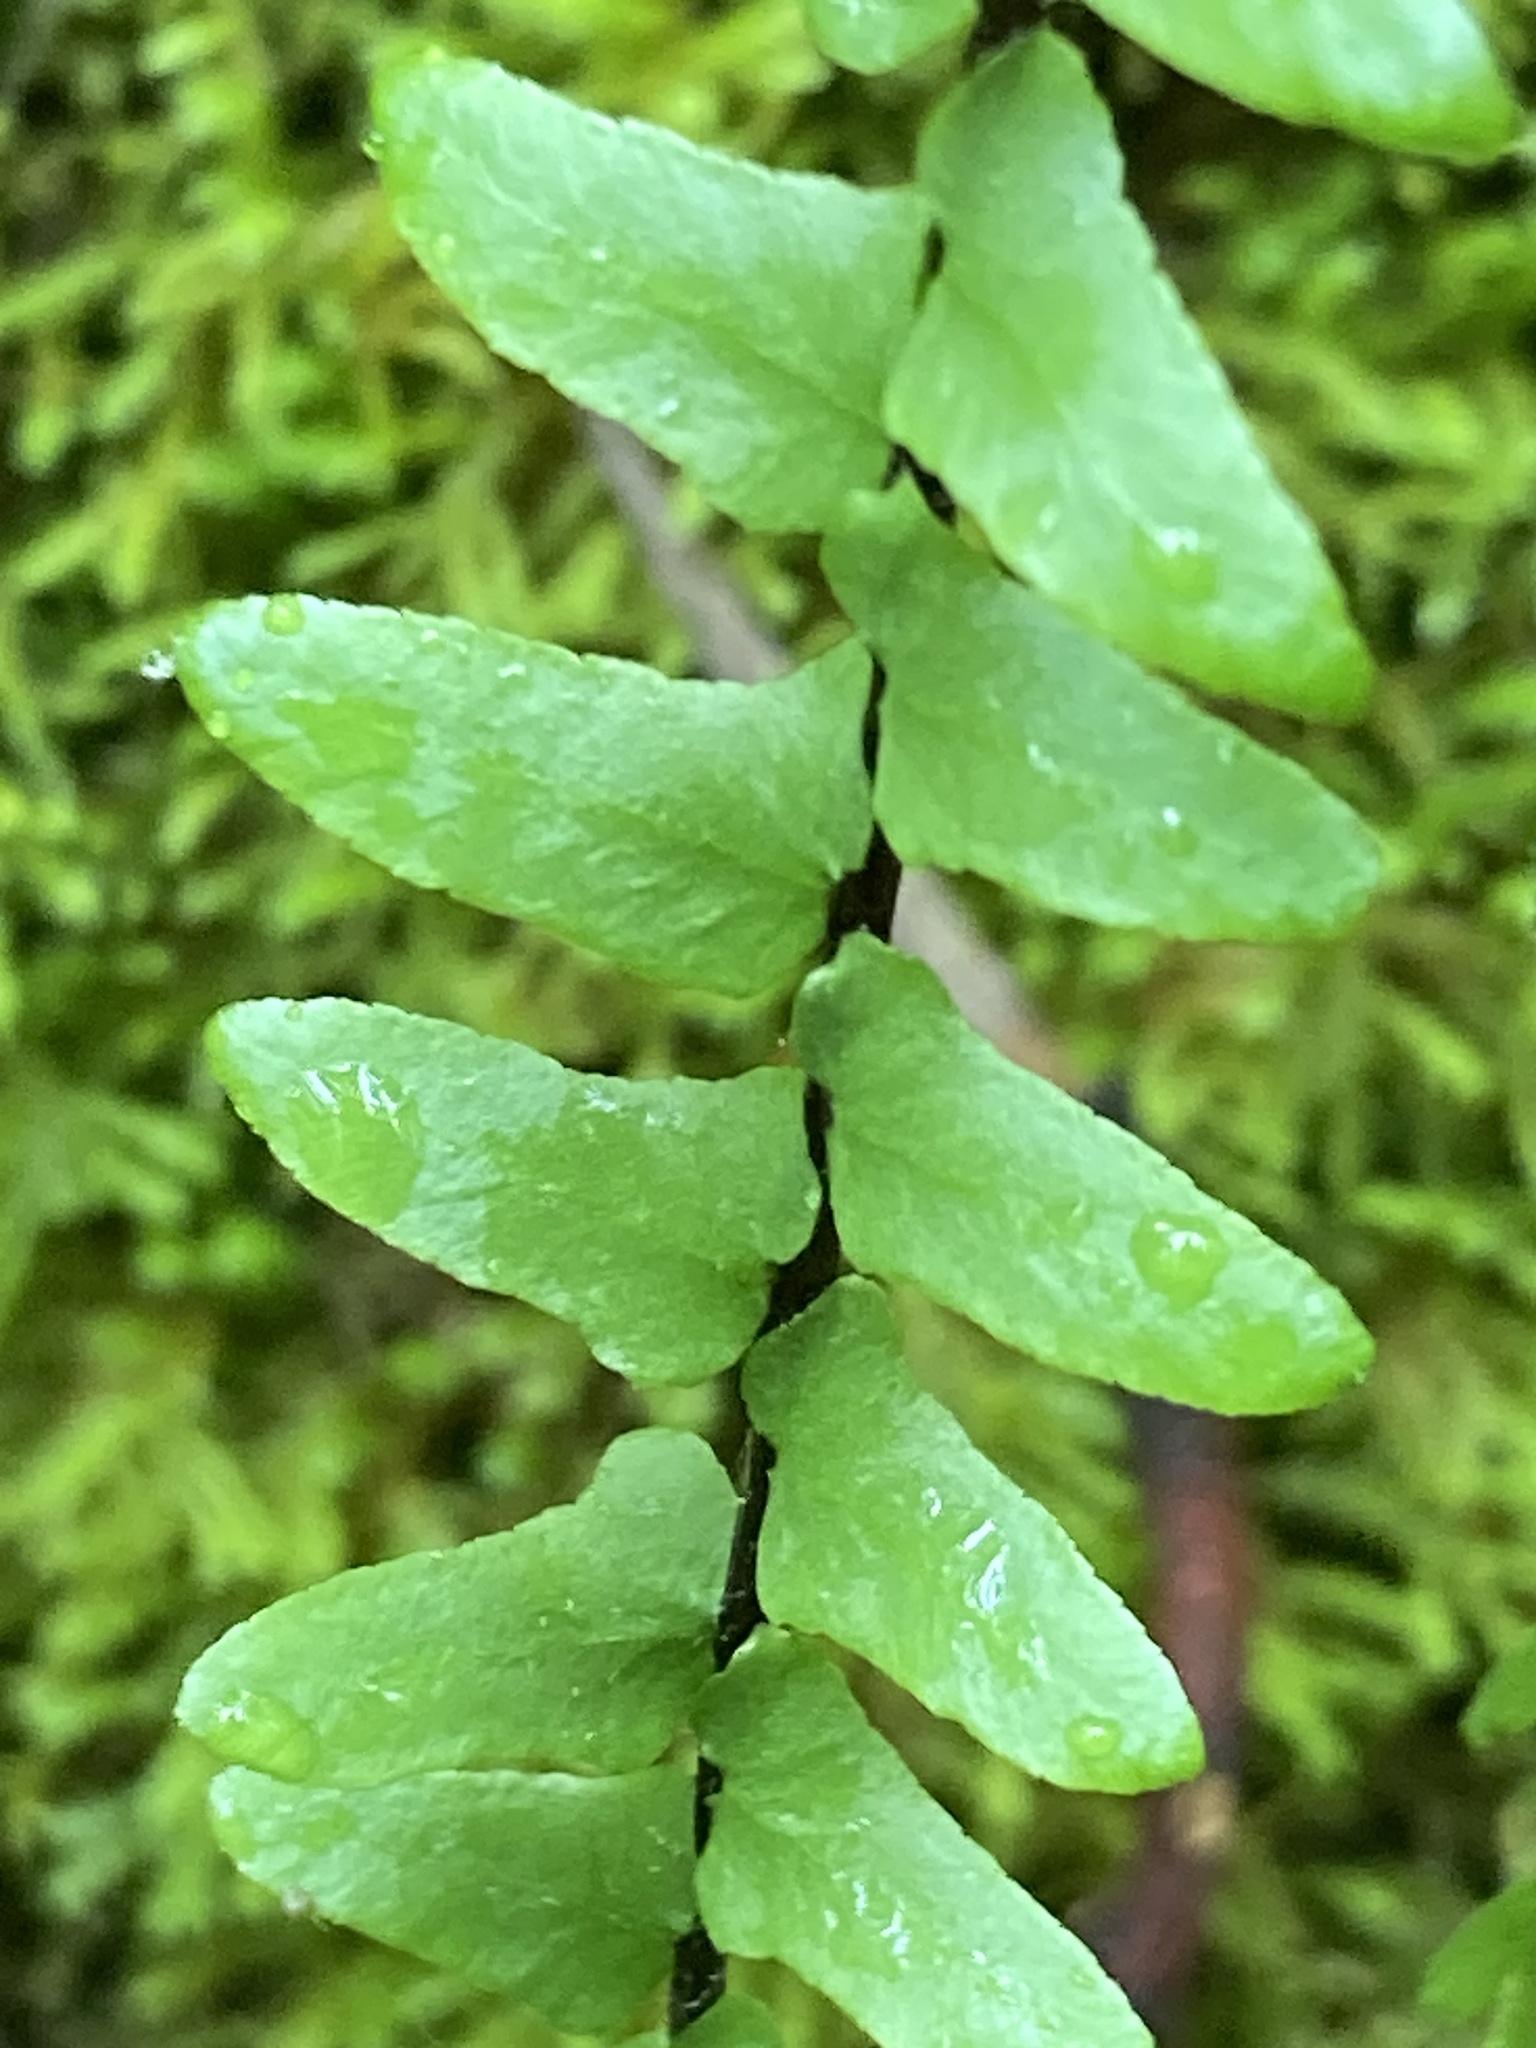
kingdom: Plantae
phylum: Tracheophyta
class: Polypodiopsida
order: Polypodiales
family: Aspleniaceae
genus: Asplenium
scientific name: Asplenium platyneuron
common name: Ebony spleenwort
